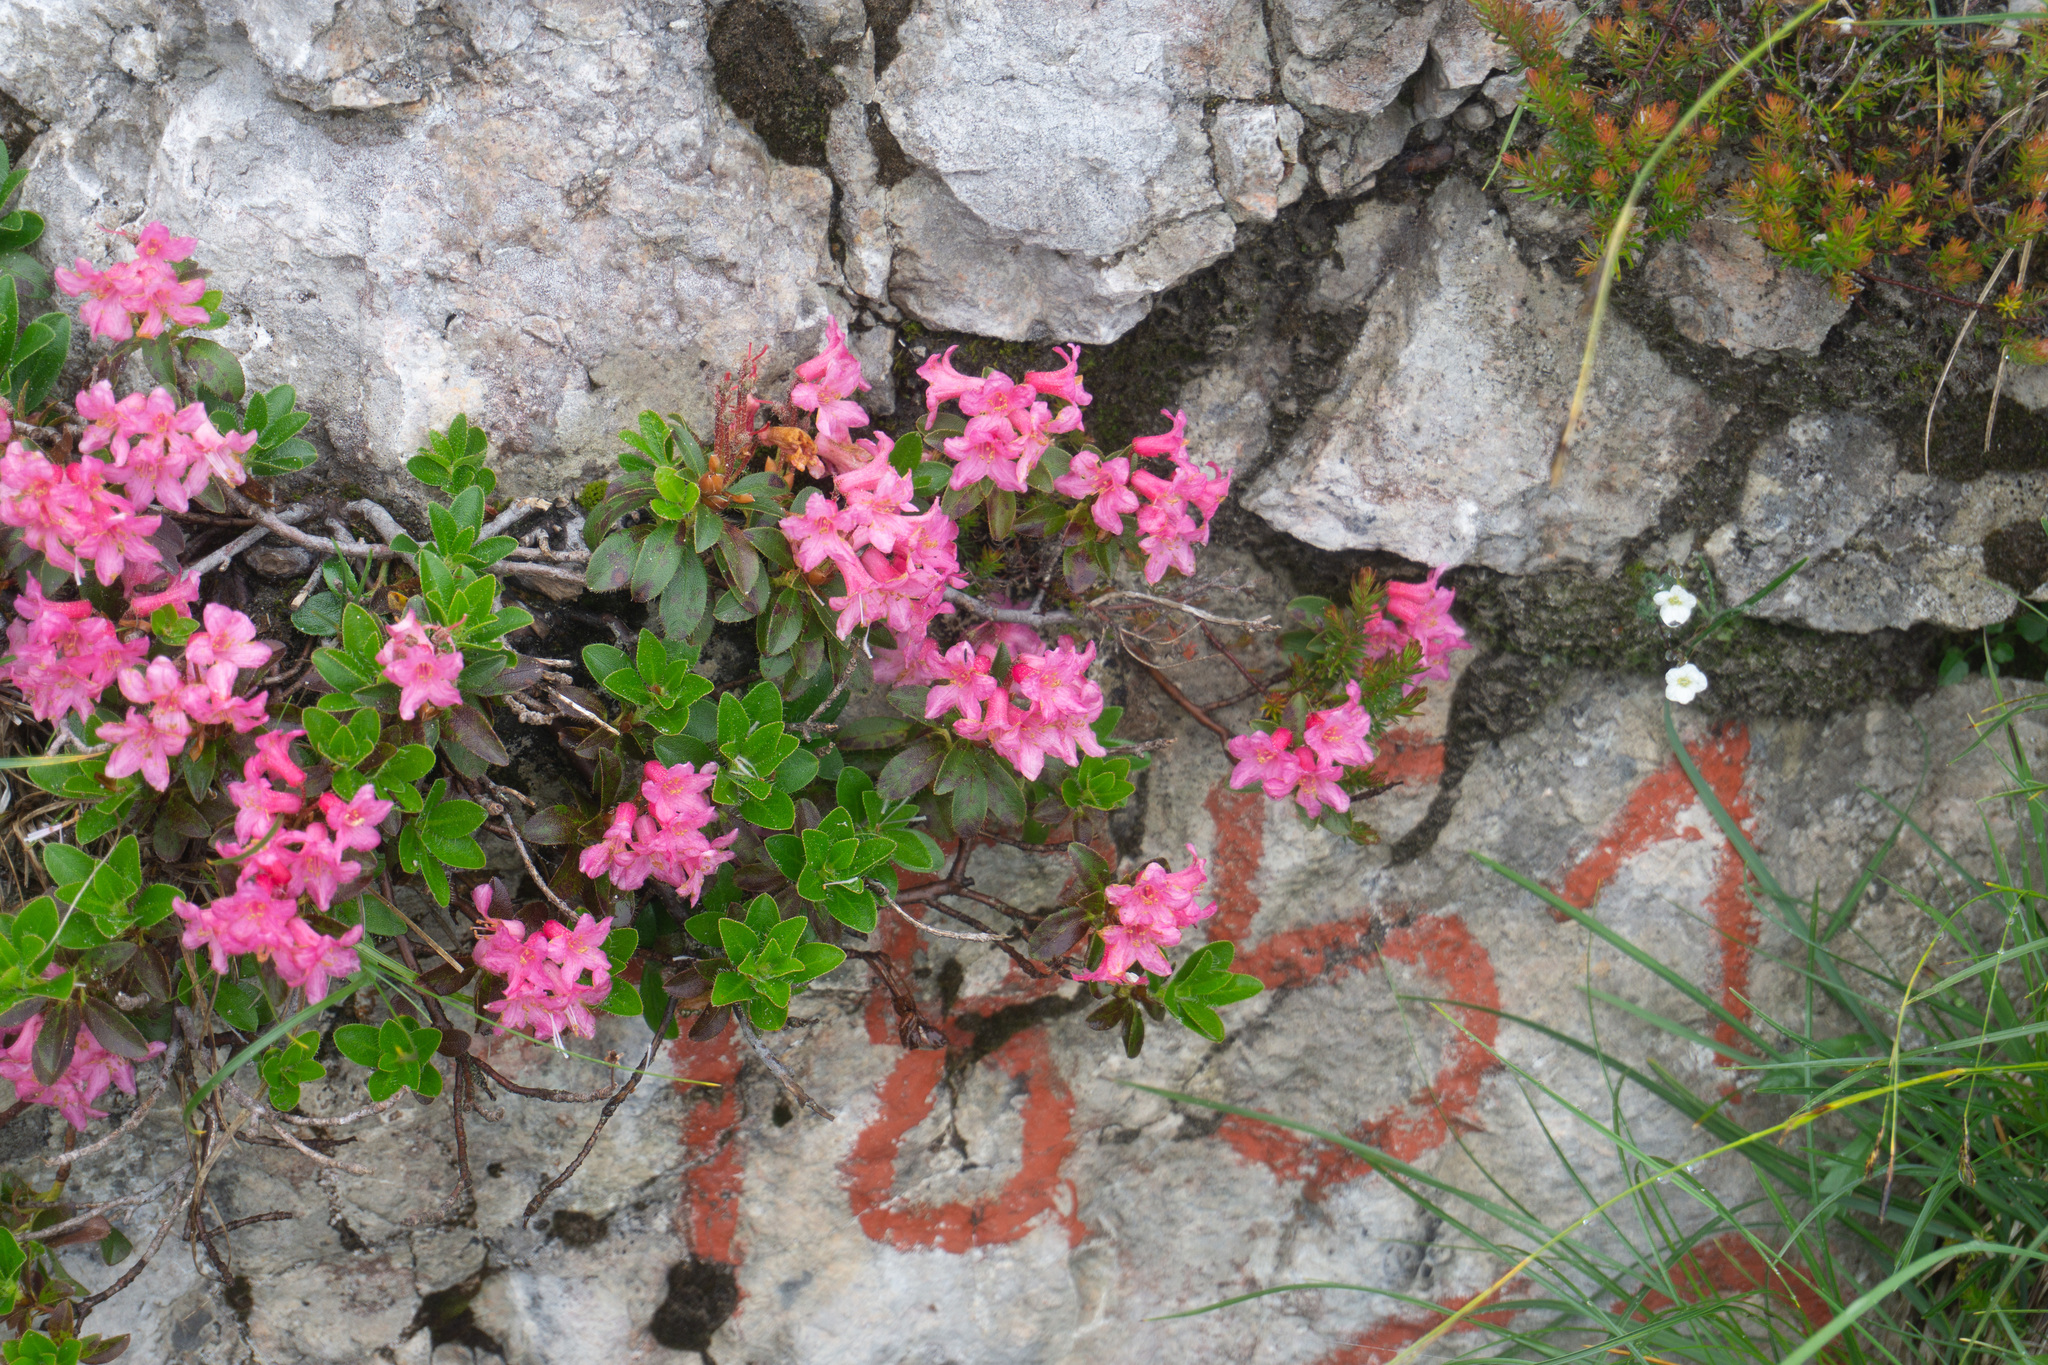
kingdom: Plantae
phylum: Tracheophyta
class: Magnoliopsida
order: Ericales
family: Ericaceae
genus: Rhododendron
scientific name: Rhododendron hirsutum
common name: Hairy alpenrose
